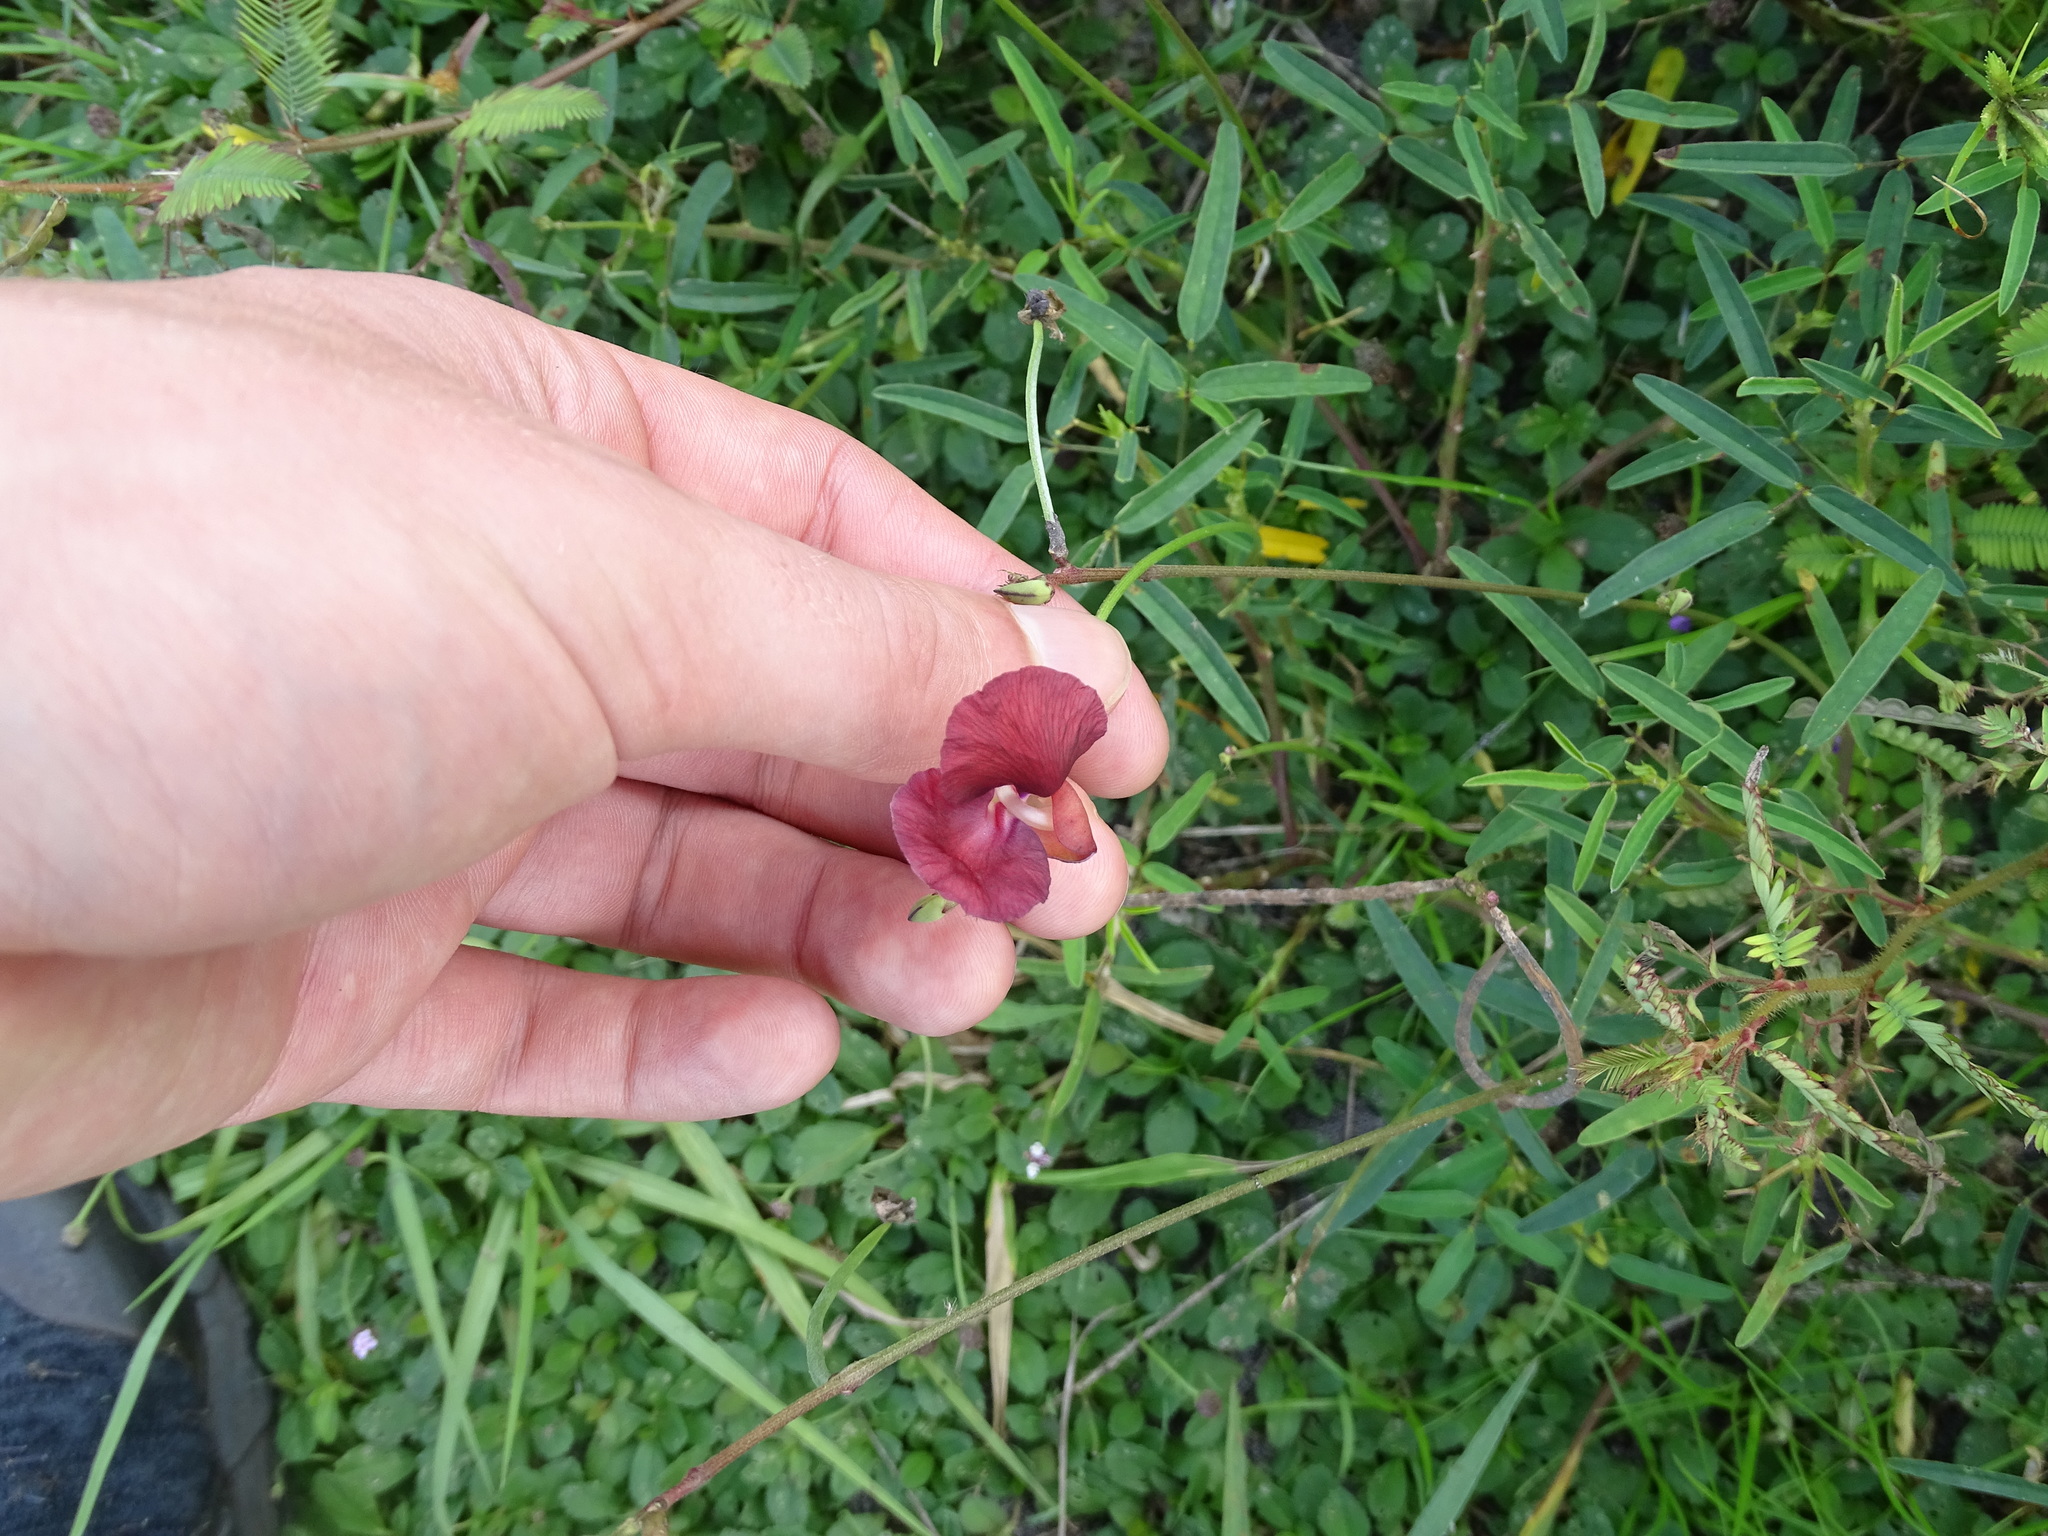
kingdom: Plantae
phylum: Tracheophyta
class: Magnoliopsida
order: Fabales
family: Fabaceae
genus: Macroptilium
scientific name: Macroptilium lathyroides
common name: Wild bushbean
